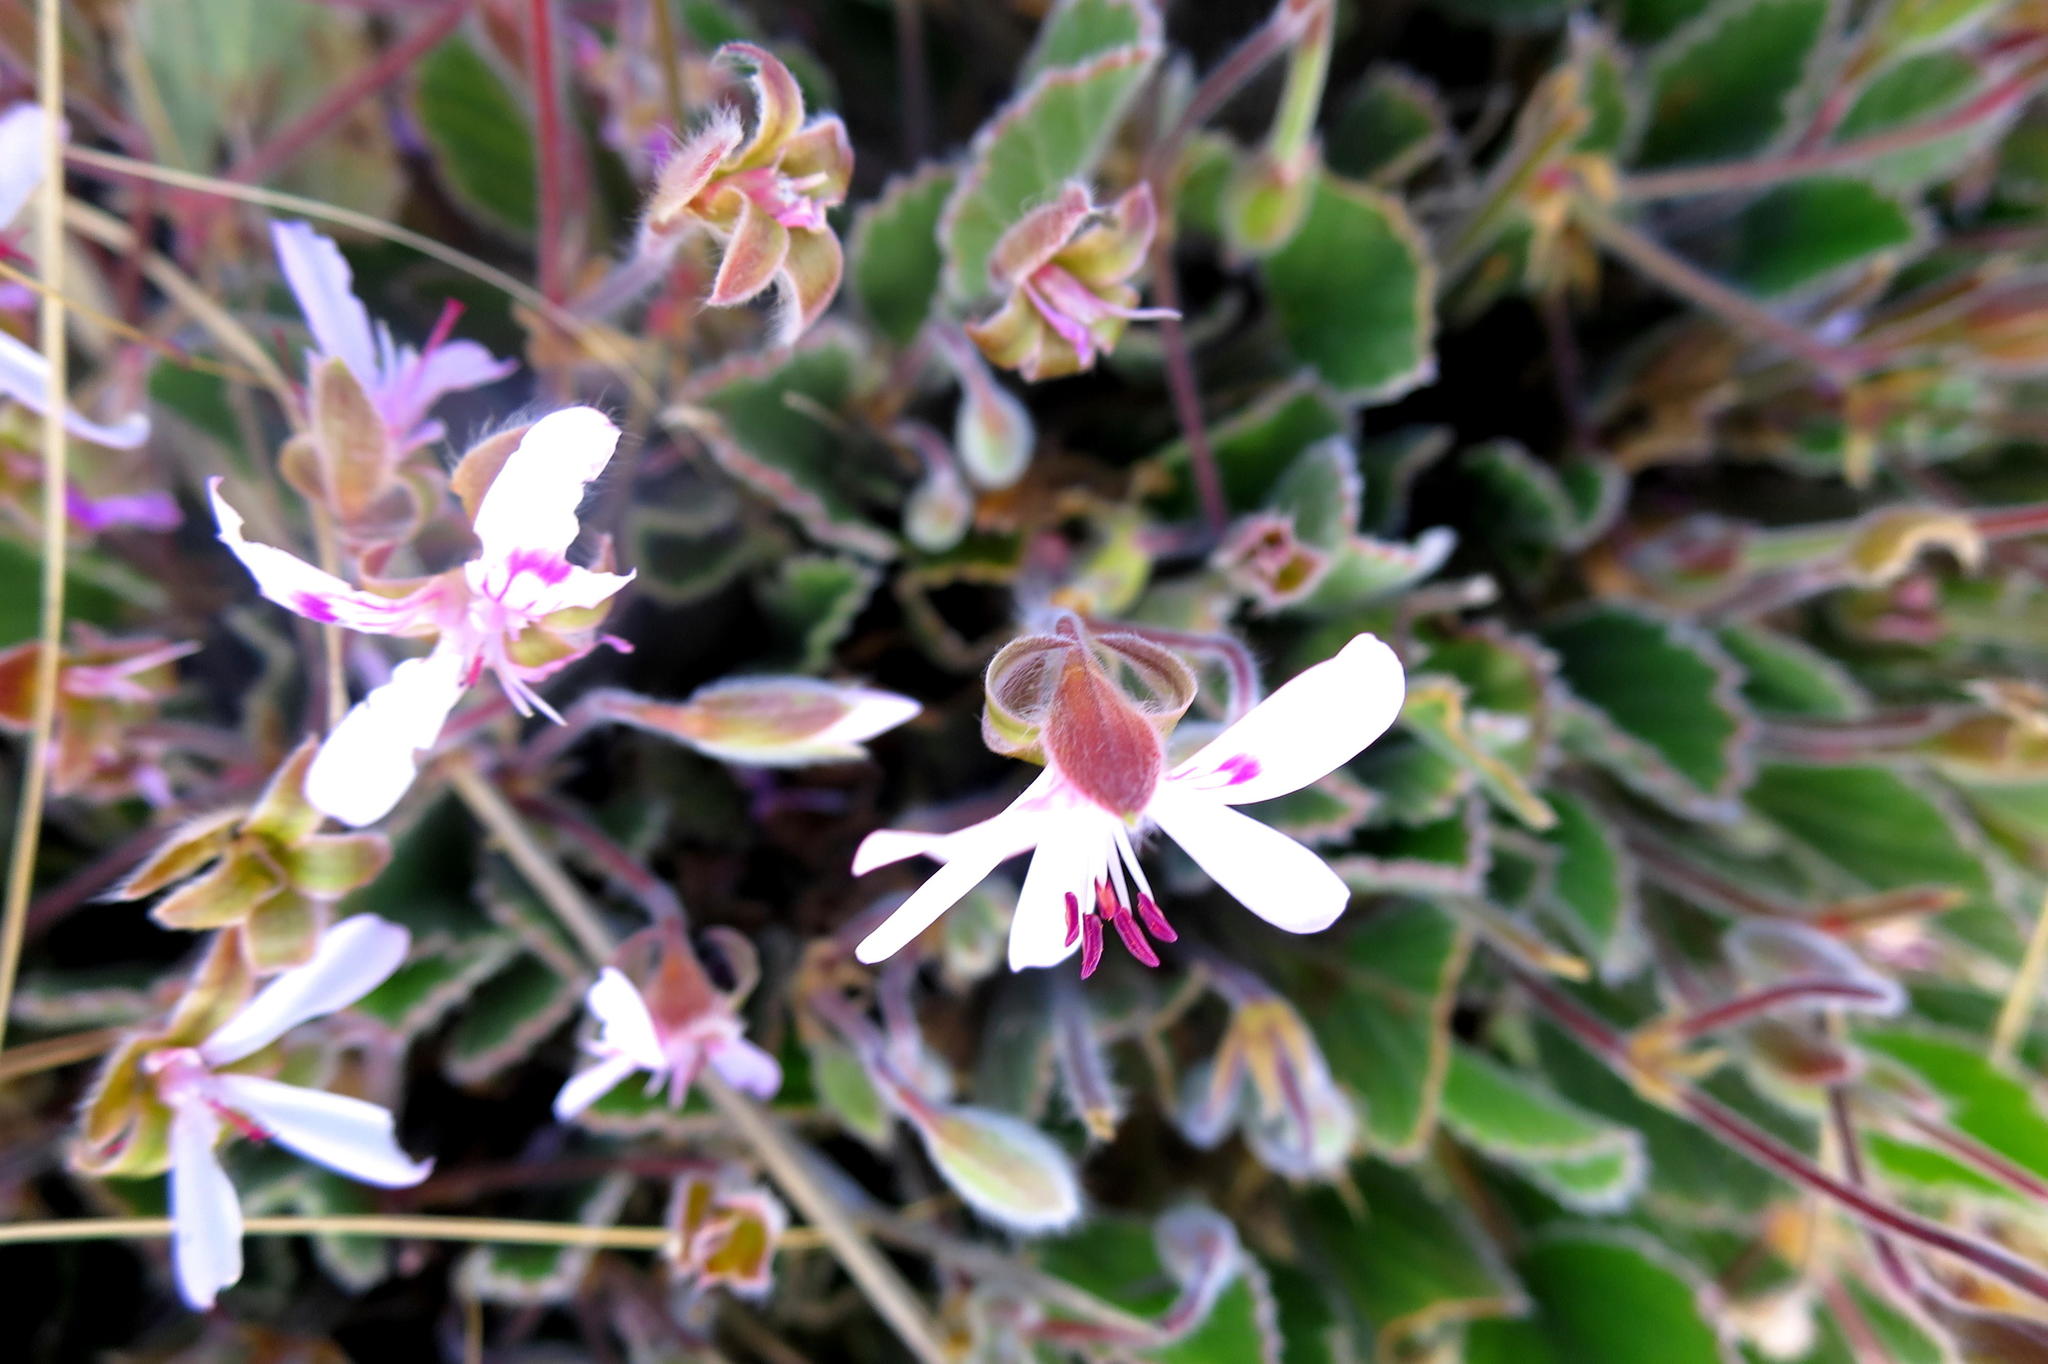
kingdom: Plantae
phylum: Tracheophyta
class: Magnoliopsida
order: Geraniales
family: Geraniaceae
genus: Pelargonium
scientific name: Pelargonium ovale
